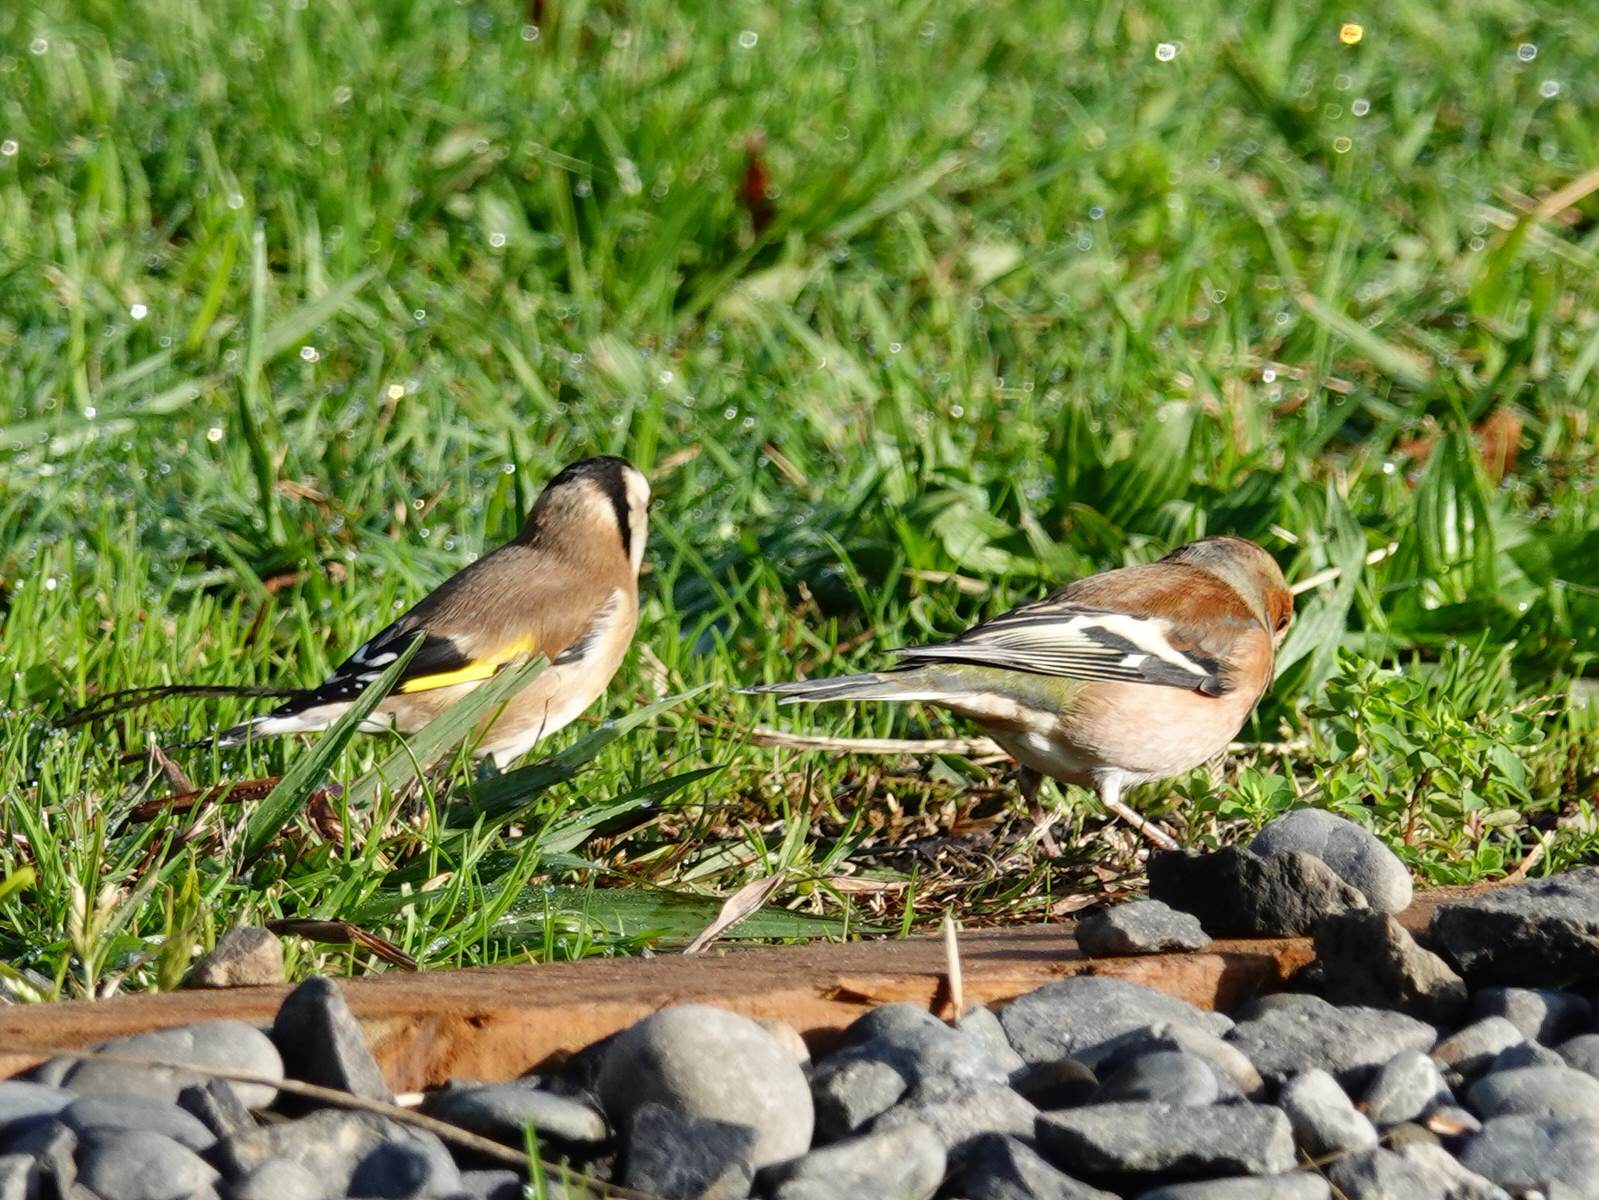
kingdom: Animalia
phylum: Chordata
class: Aves
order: Passeriformes
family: Fringillidae
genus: Fringilla
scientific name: Fringilla coelebs
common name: Common chaffinch
